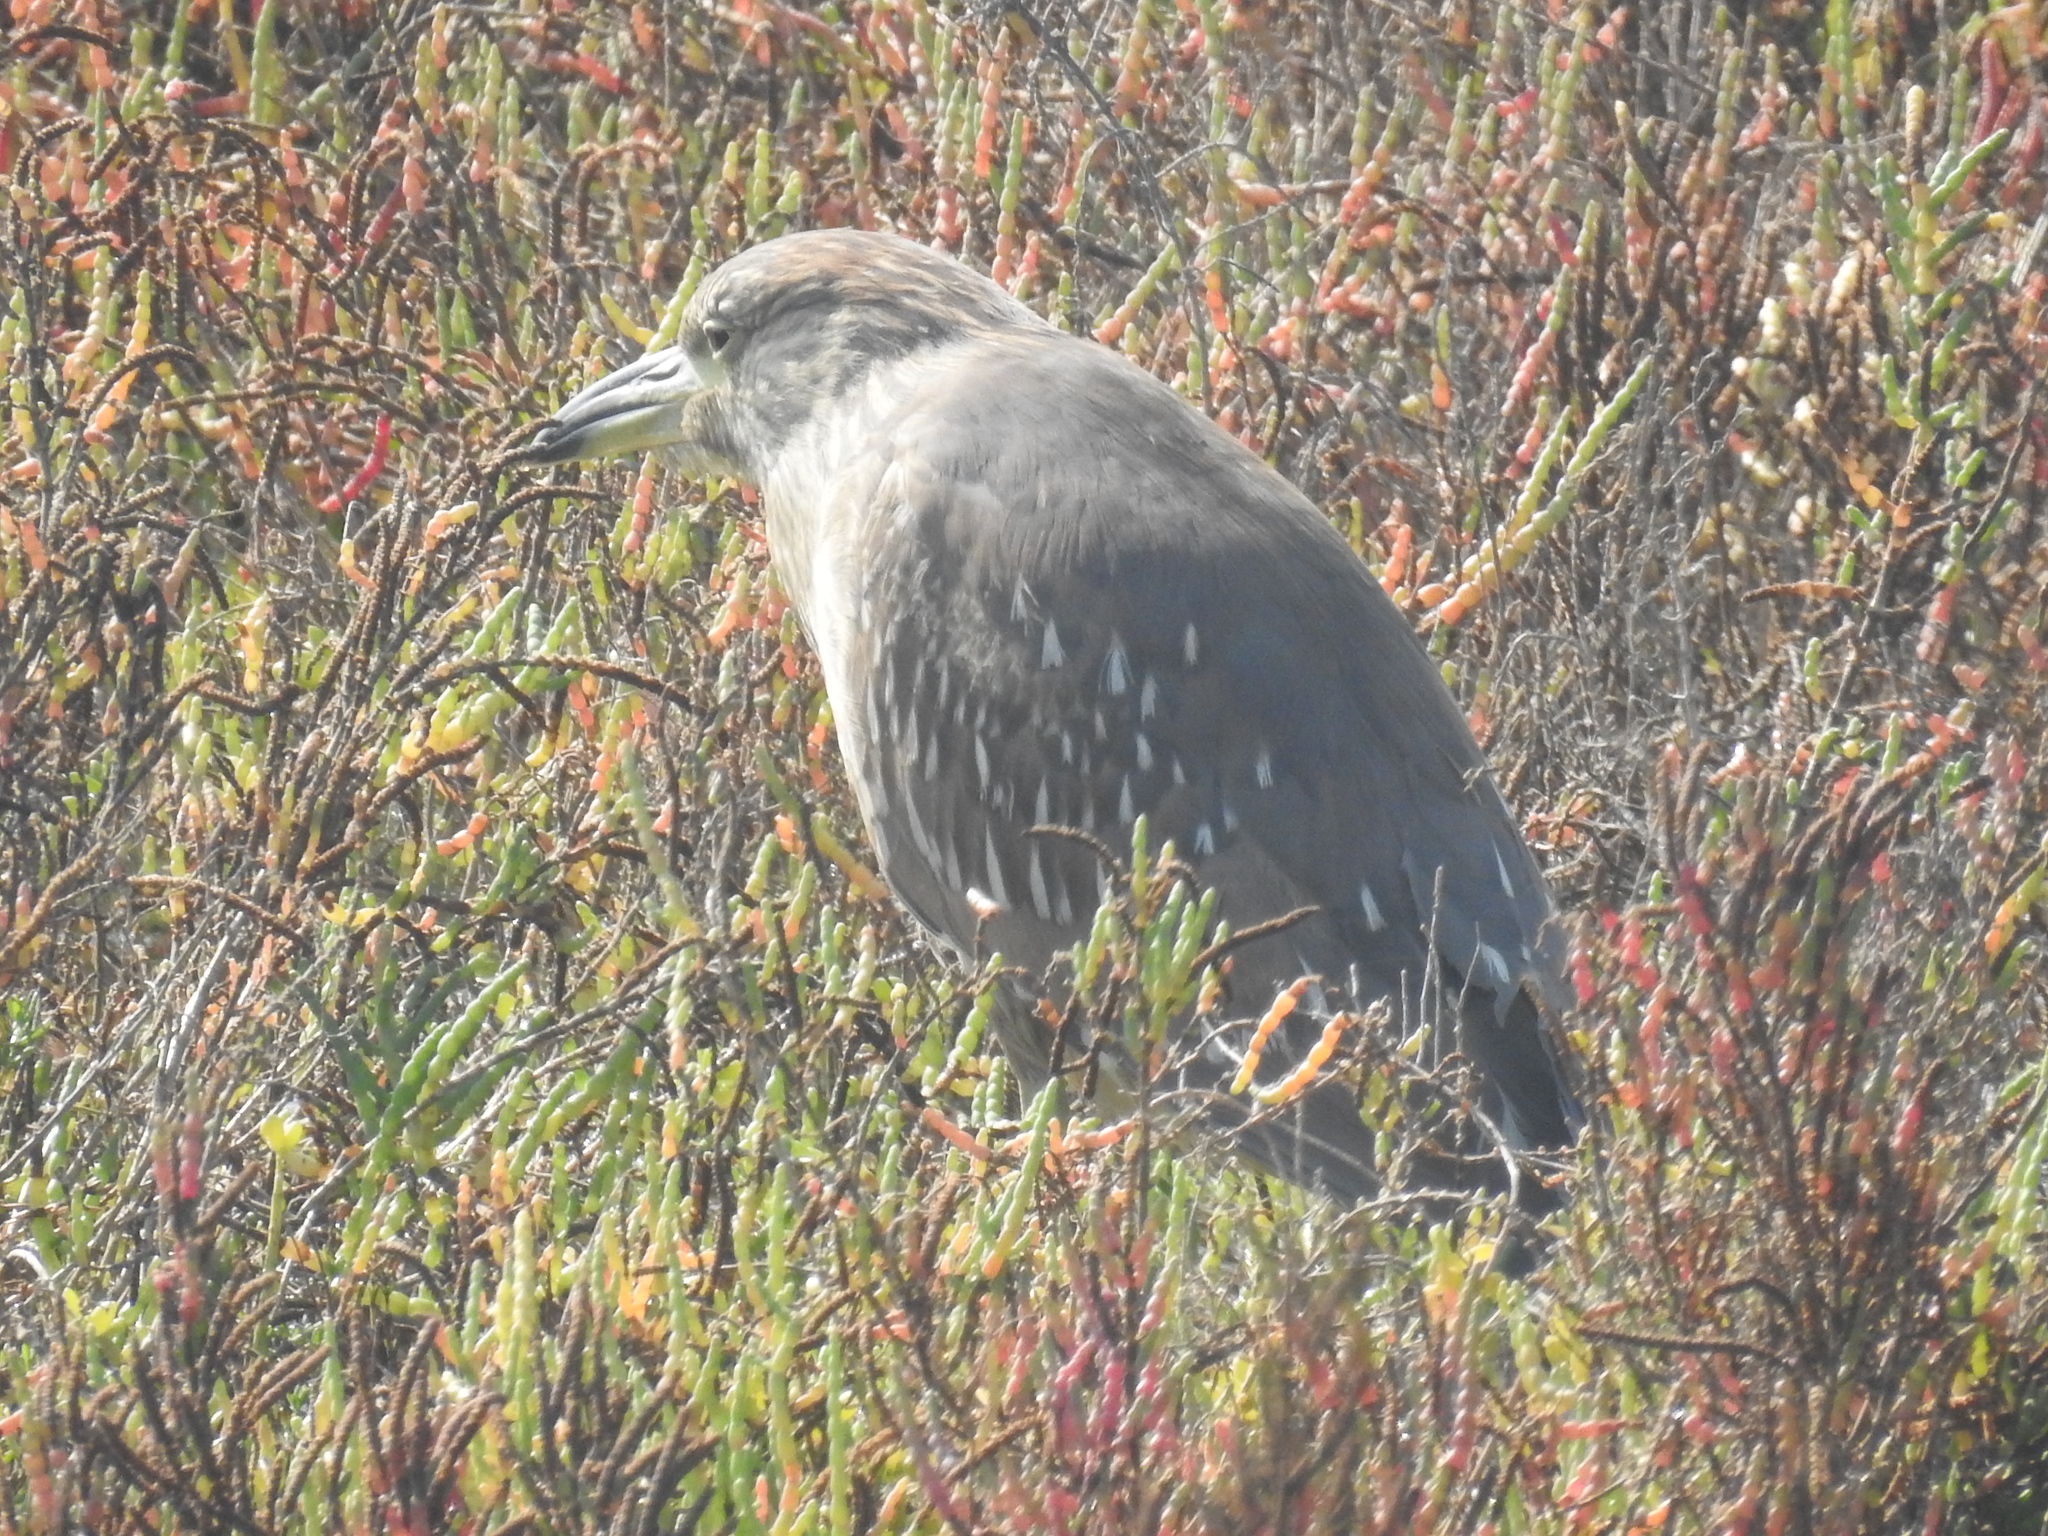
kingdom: Animalia
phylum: Chordata
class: Aves
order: Pelecaniformes
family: Ardeidae
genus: Nycticorax
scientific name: Nycticorax nycticorax
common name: Black-crowned night heron
